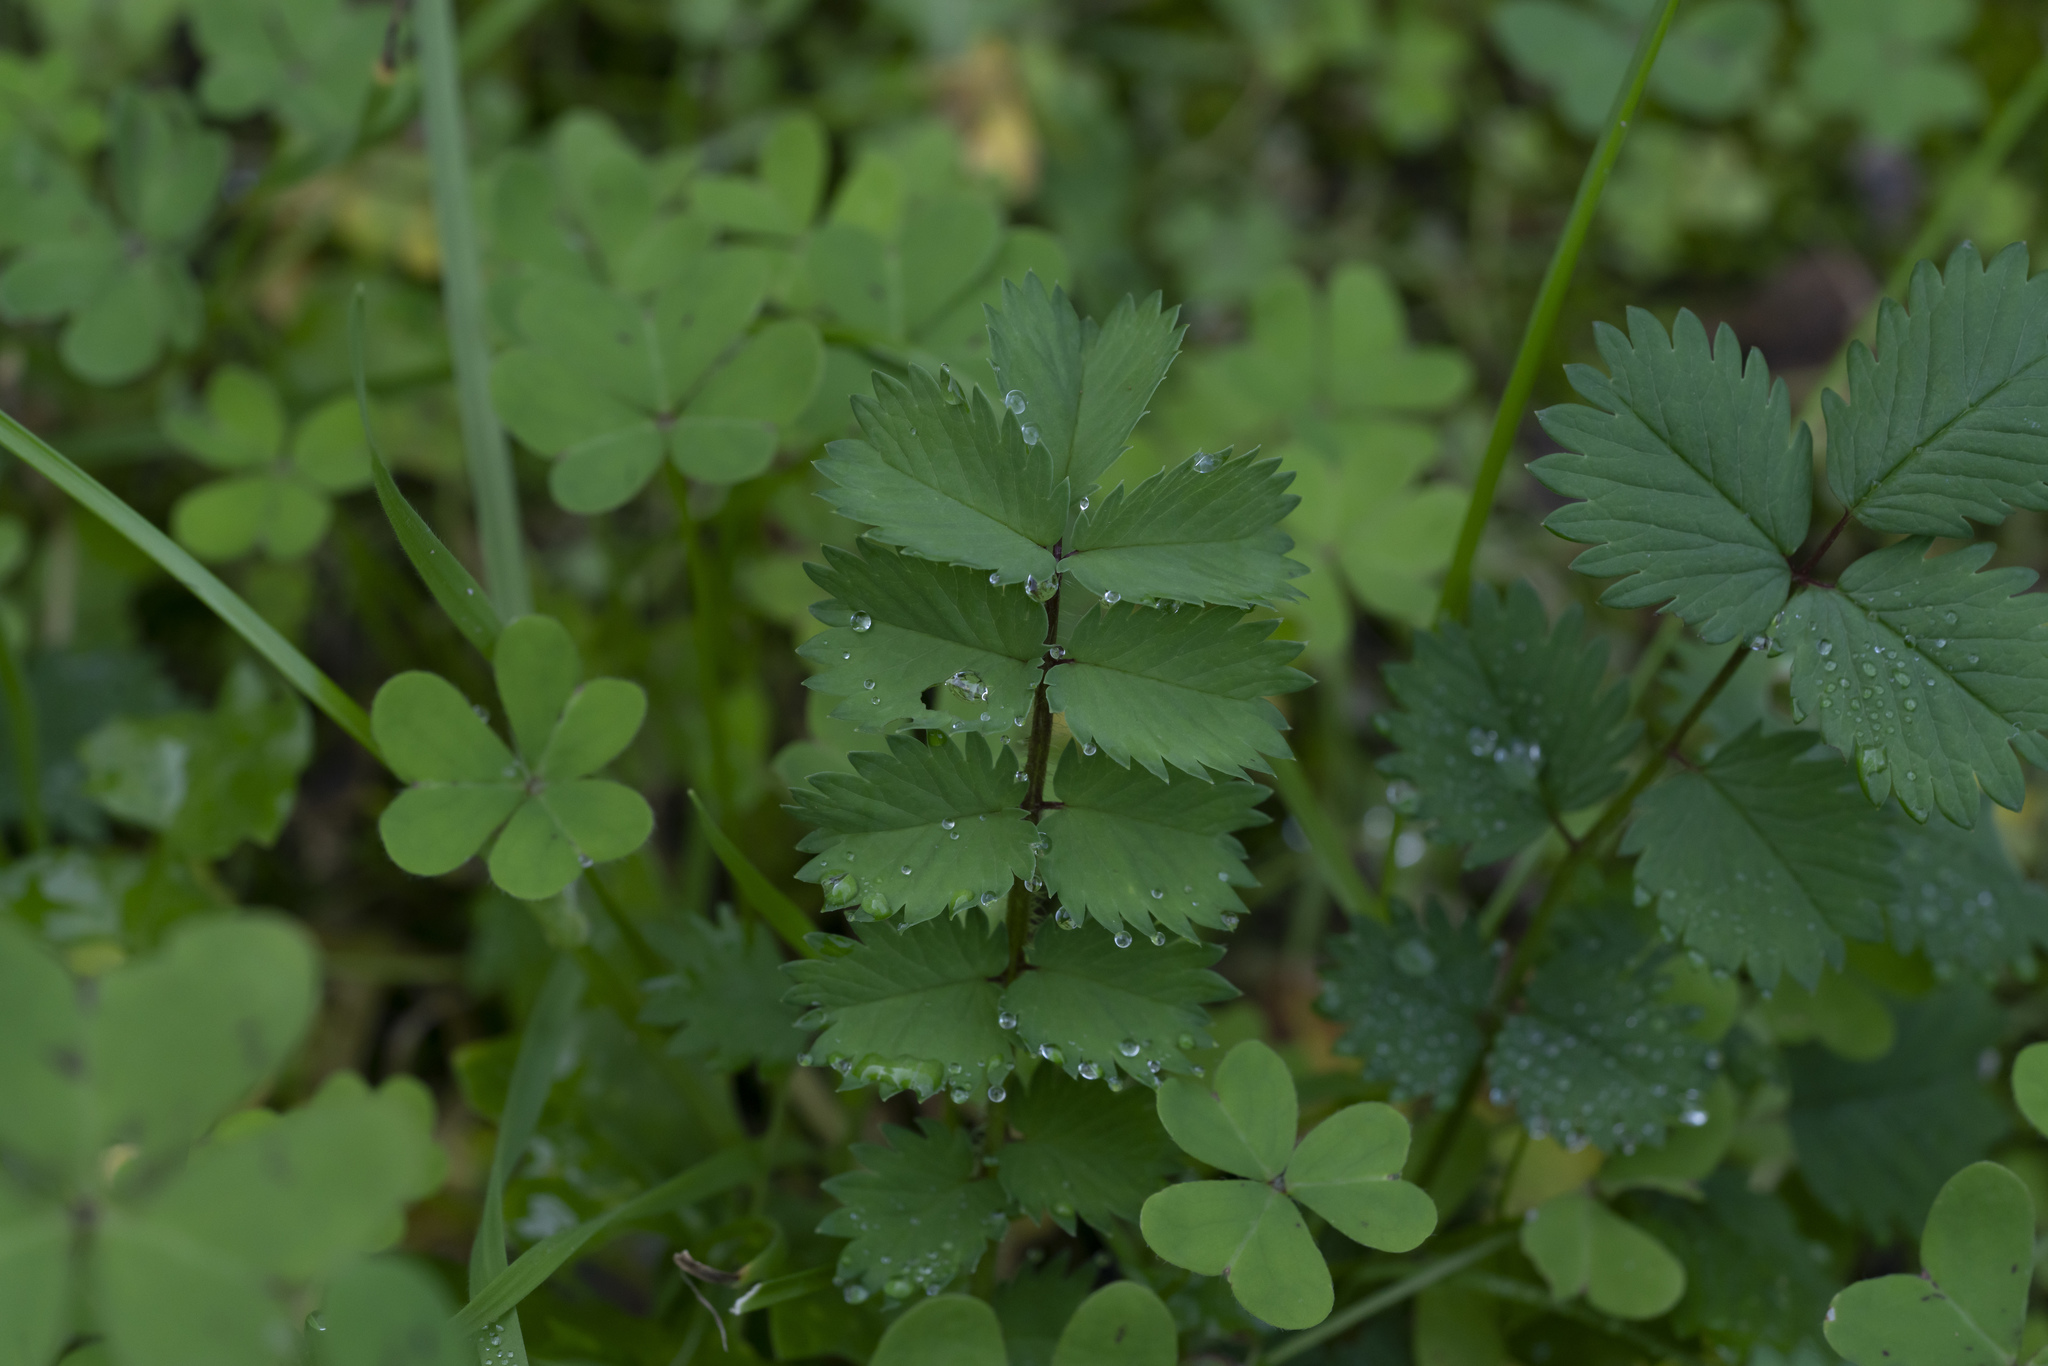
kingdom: Plantae
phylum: Tracheophyta
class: Magnoliopsida
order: Rosales
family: Rosaceae
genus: Poterium
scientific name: Poterium
